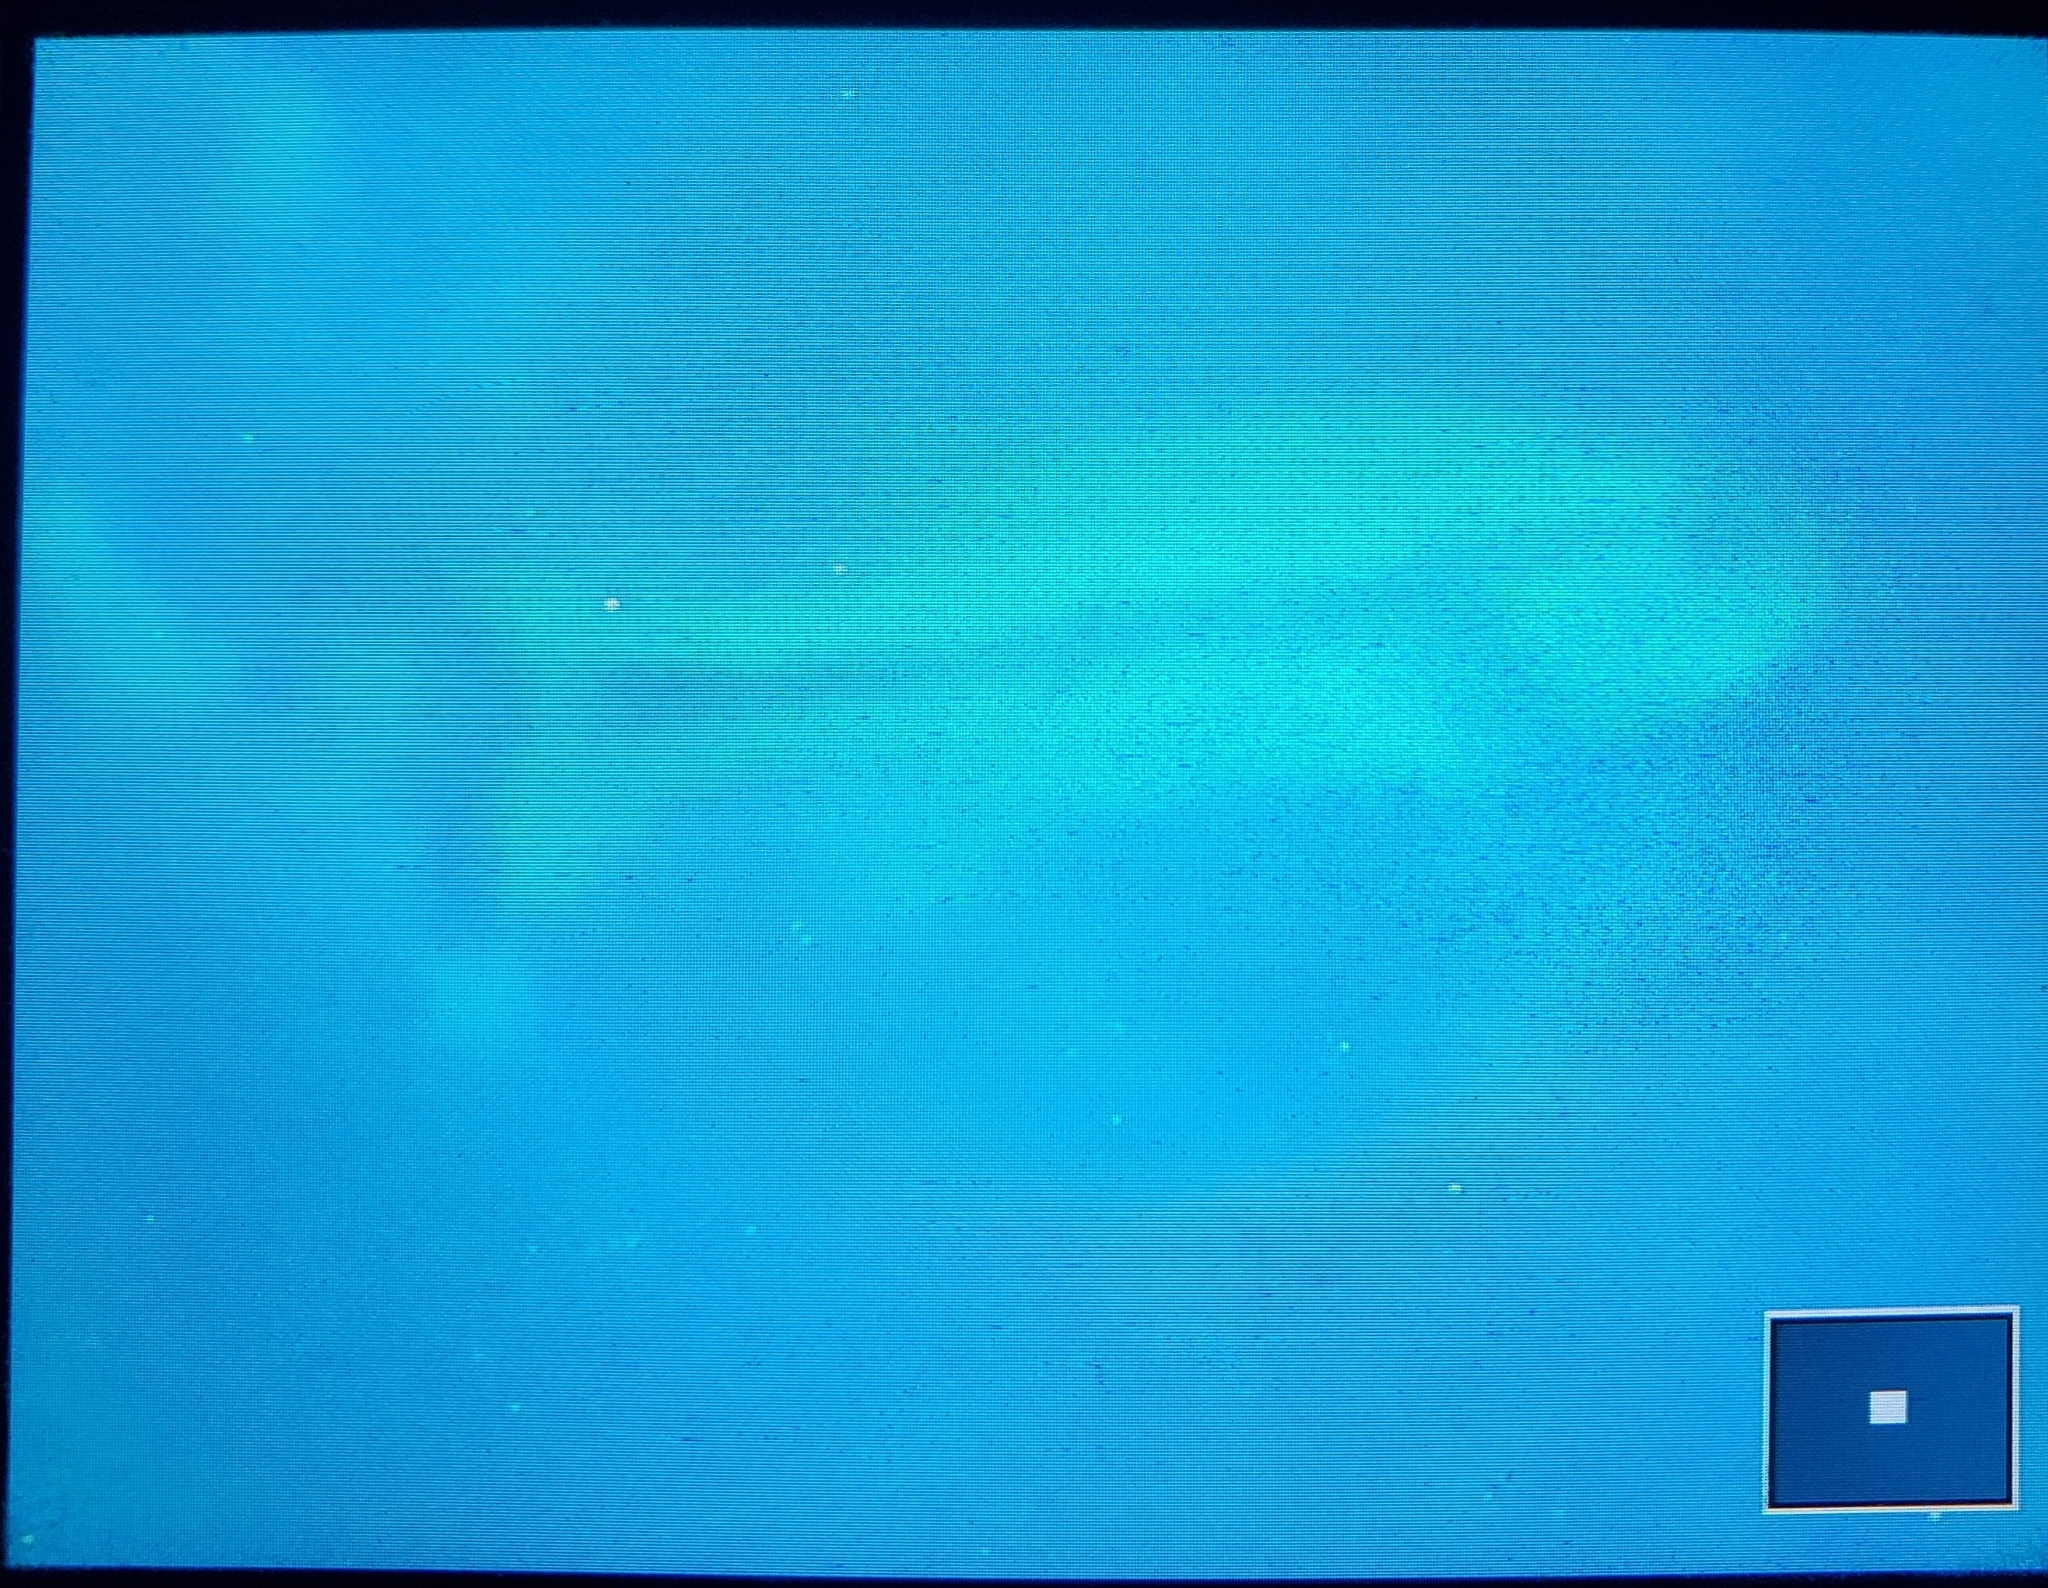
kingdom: Animalia
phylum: Chordata
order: Perciformes
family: Centrarchidae
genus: Micropterus
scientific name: Micropterus salmoides
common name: Largemouth bass
